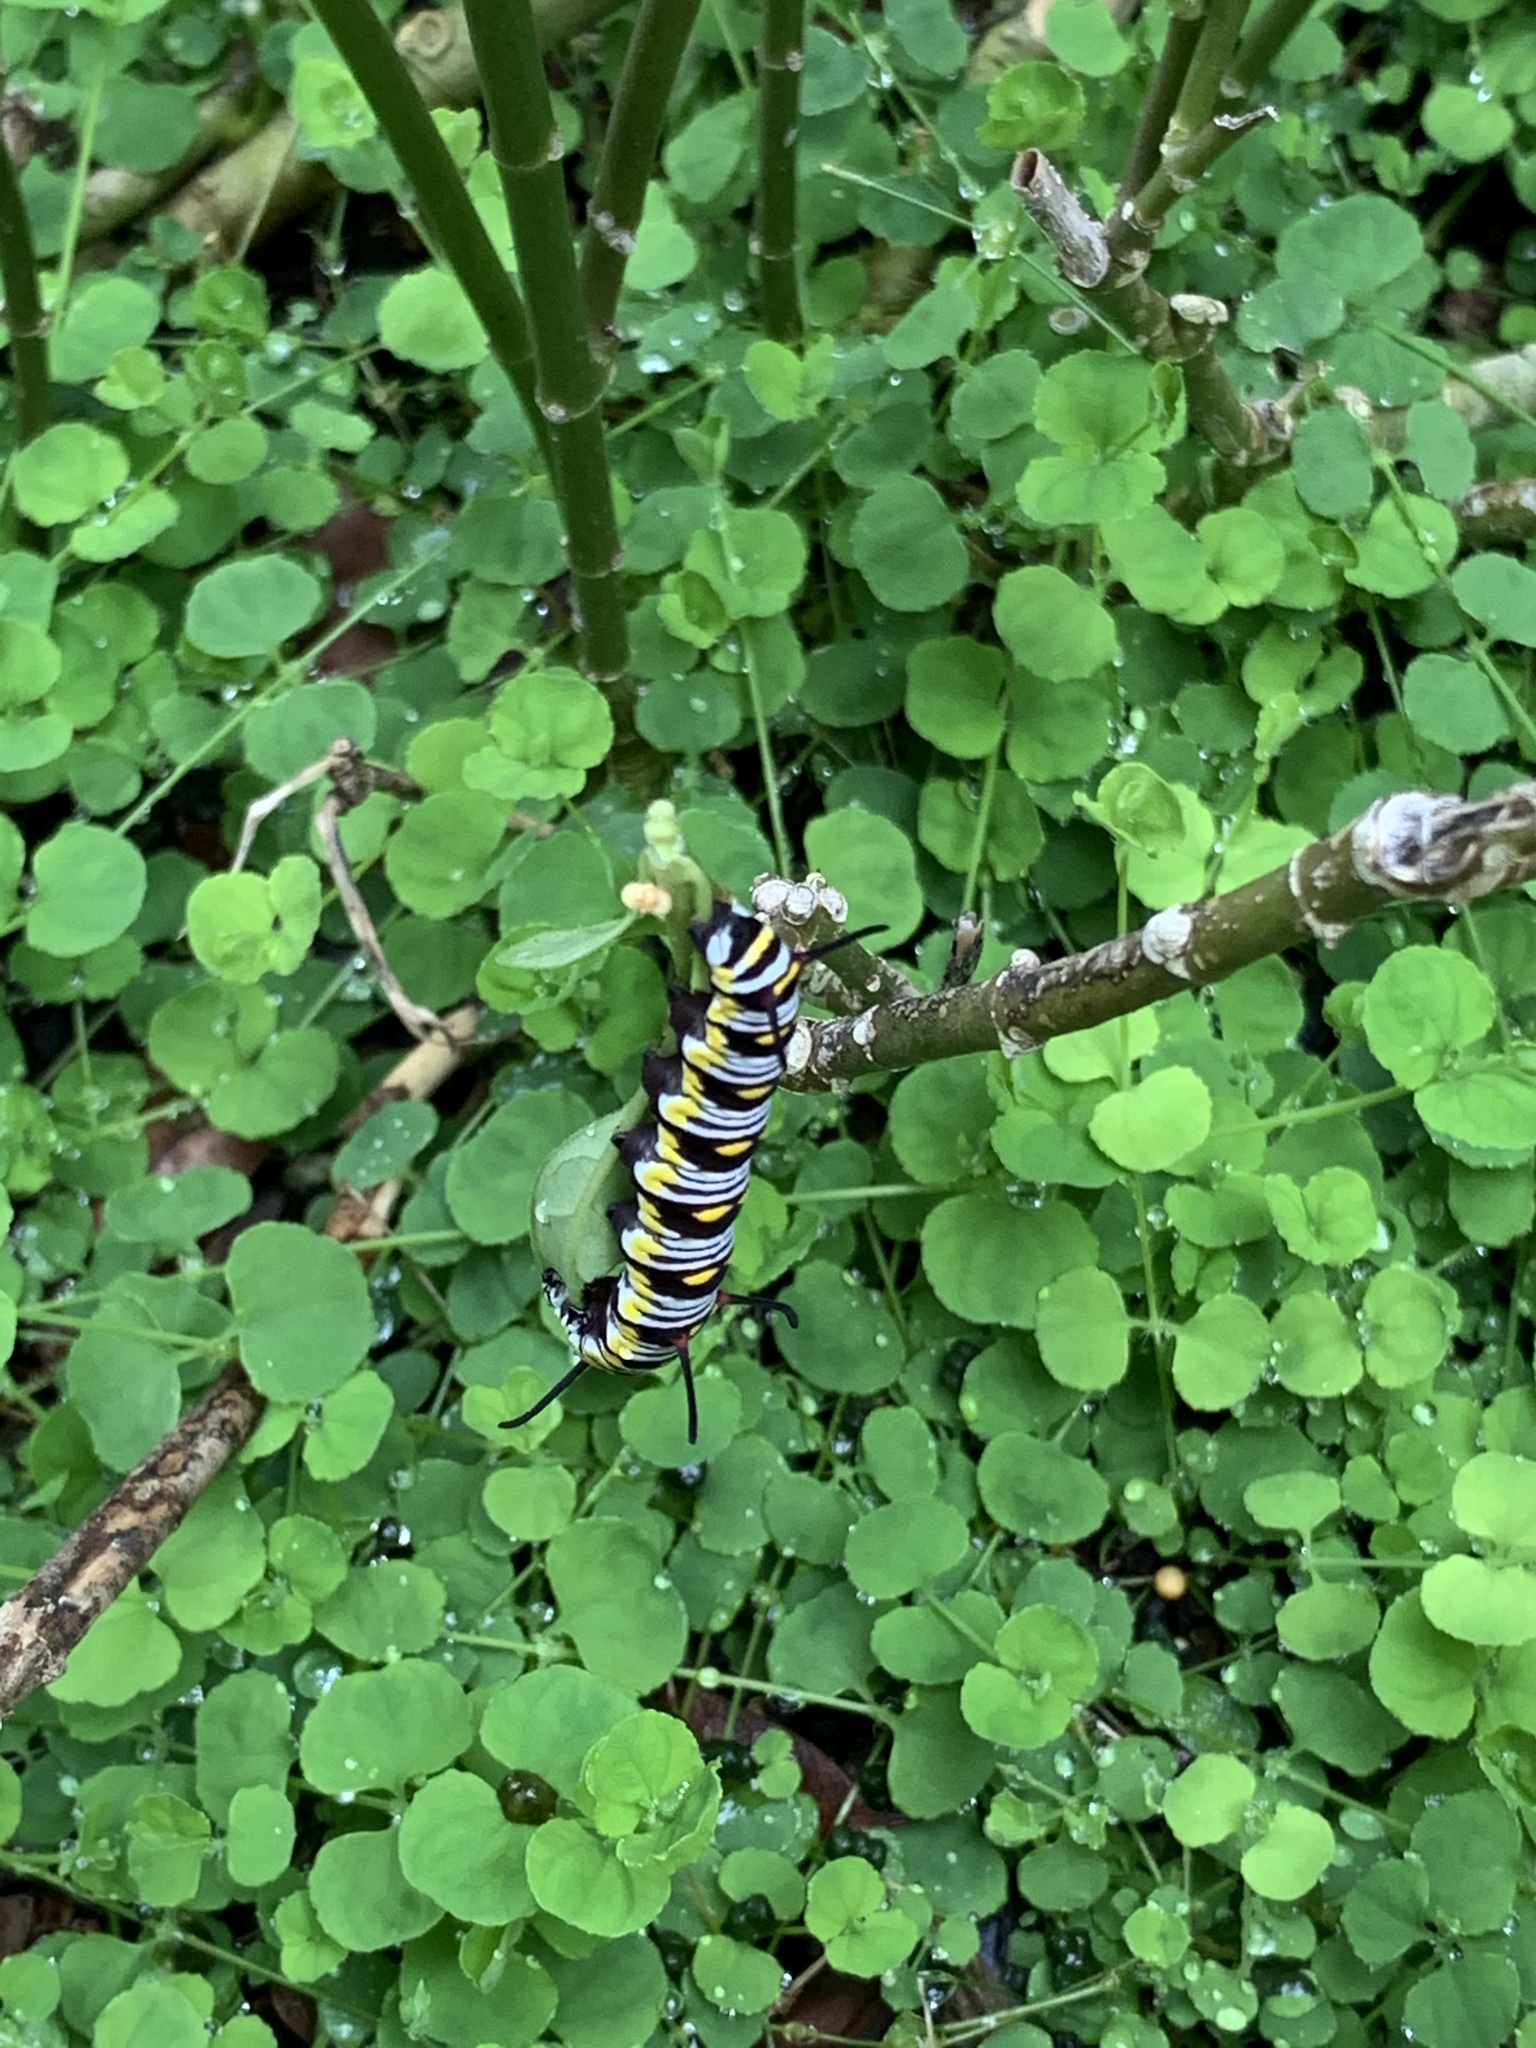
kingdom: Animalia
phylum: Arthropoda
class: Insecta
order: Lepidoptera
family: Nymphalidae
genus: Danaus
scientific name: Danaus gilippus
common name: Queen
